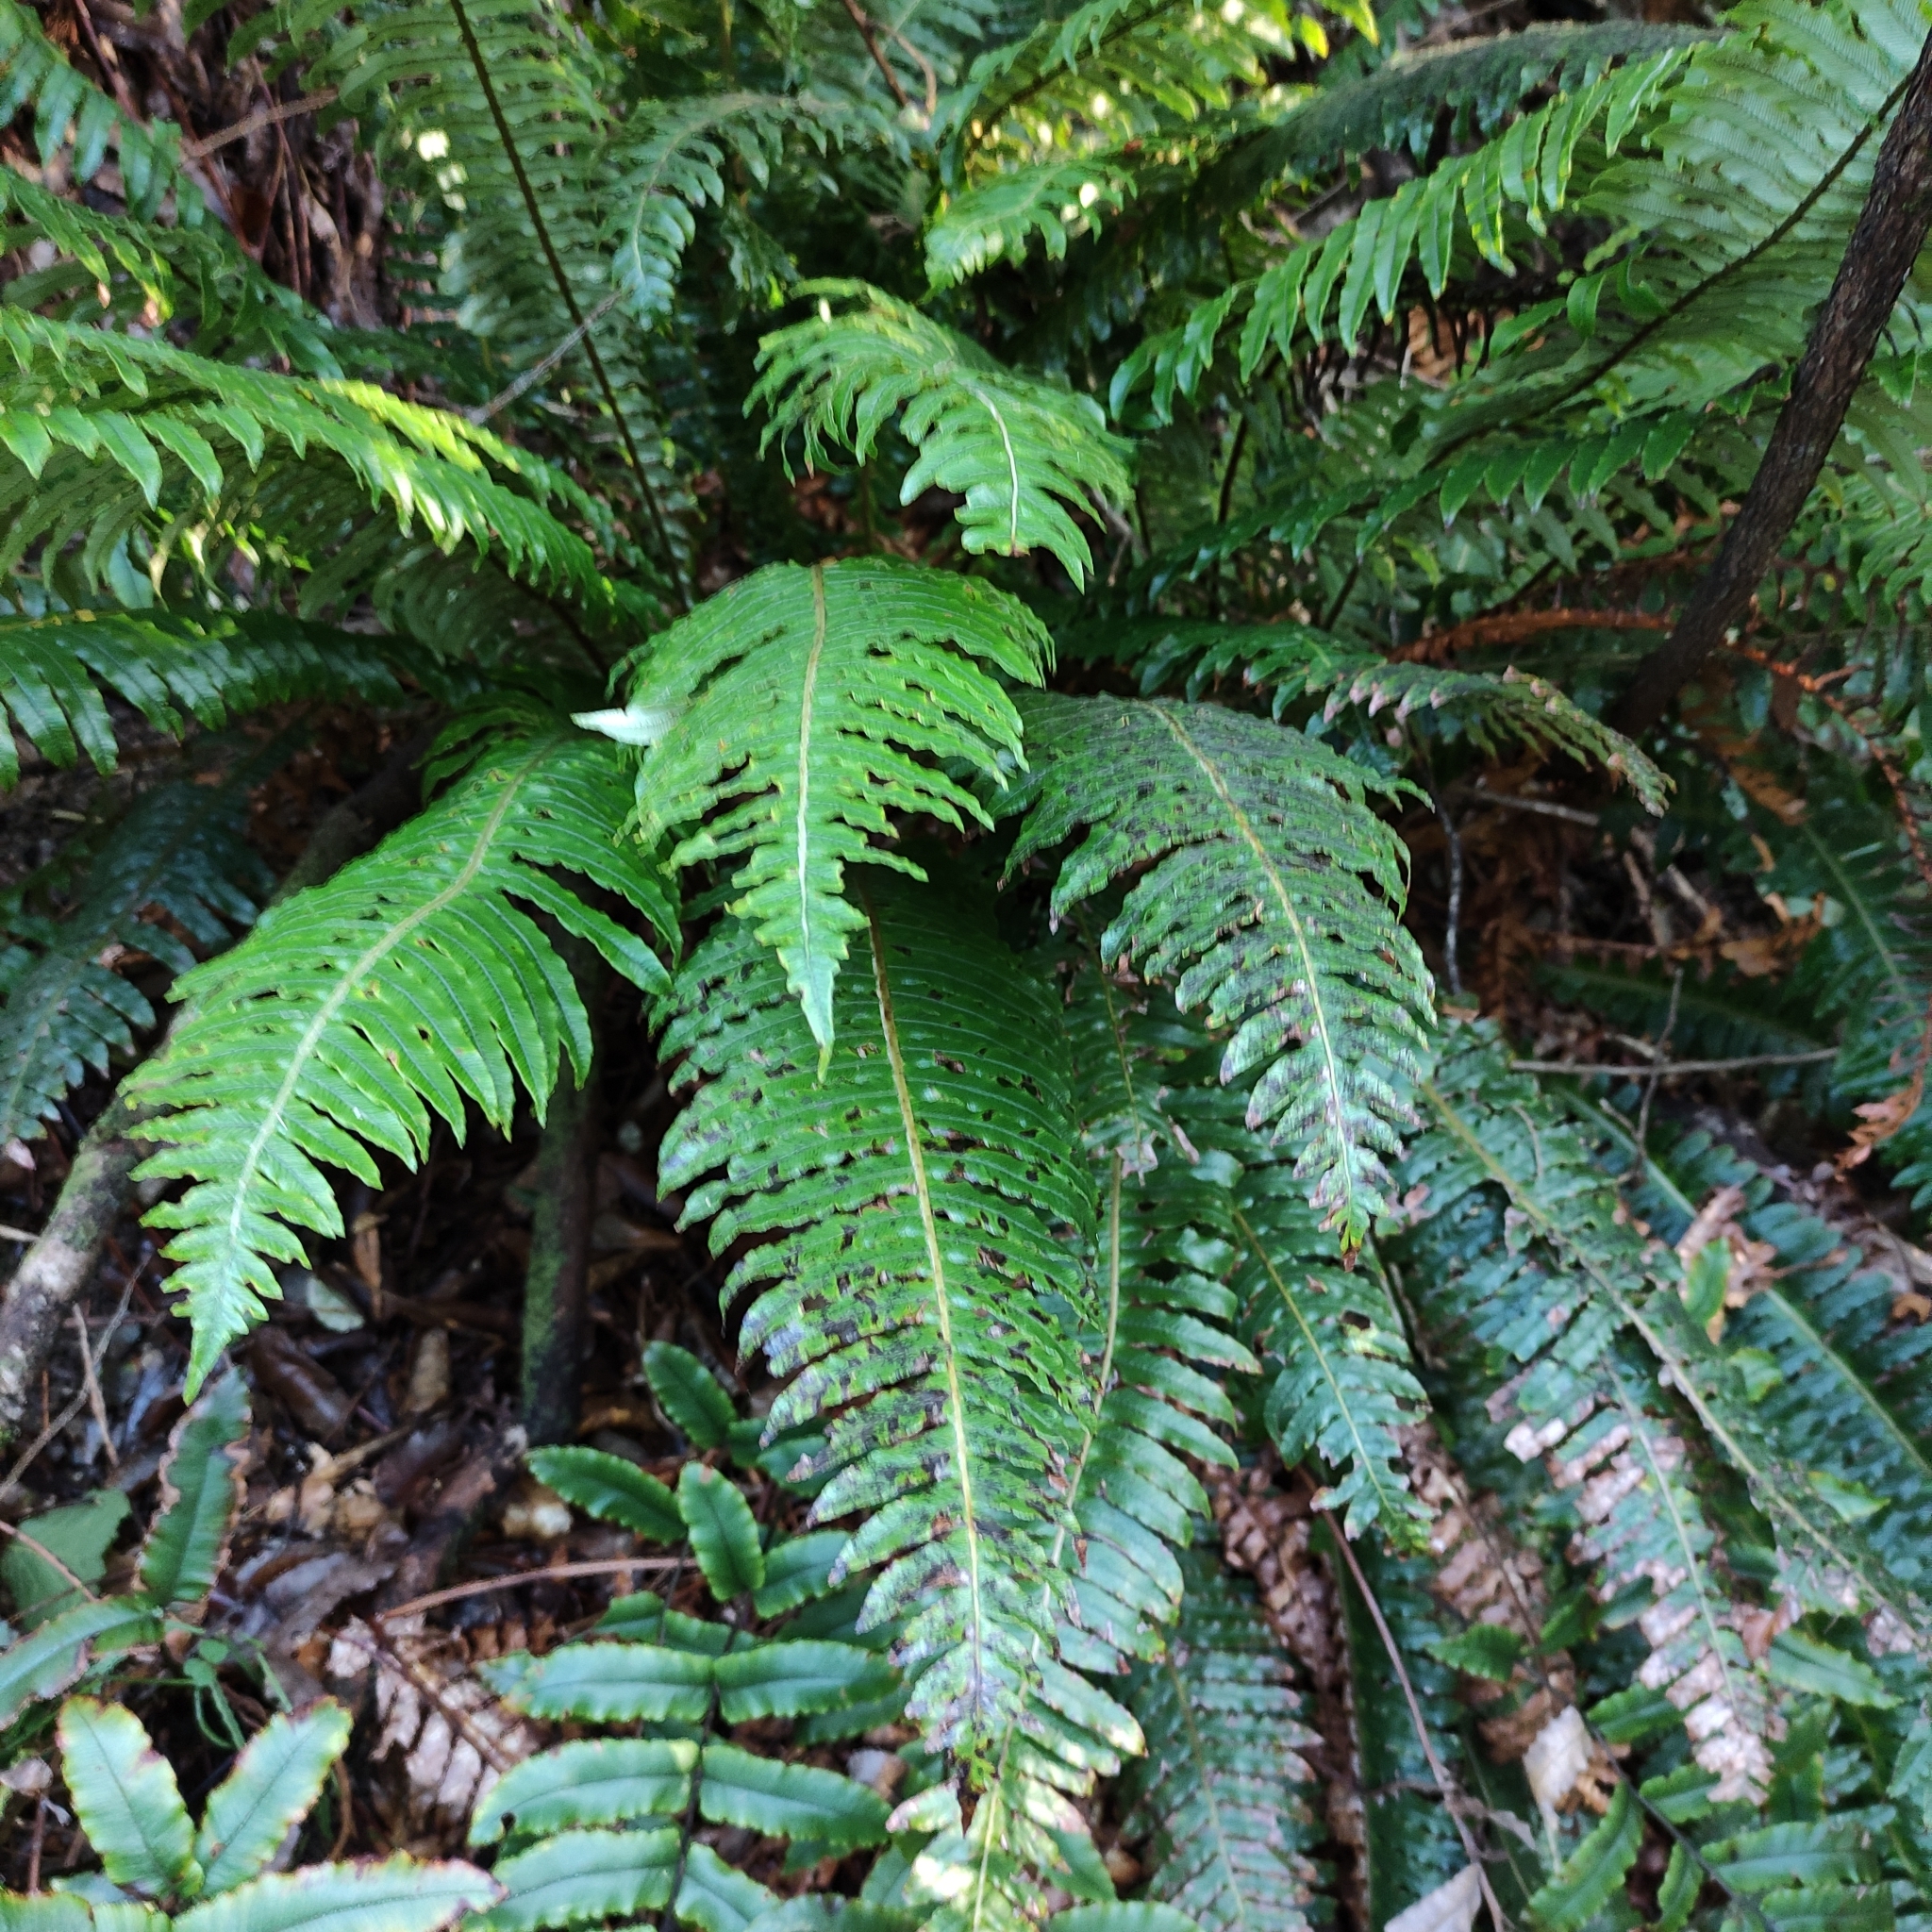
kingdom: Plantae
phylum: Tracheophyta
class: Polypodiopsida
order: Polypodiales
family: Blechnaceae
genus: Lomaria
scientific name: Lomaria discolor
